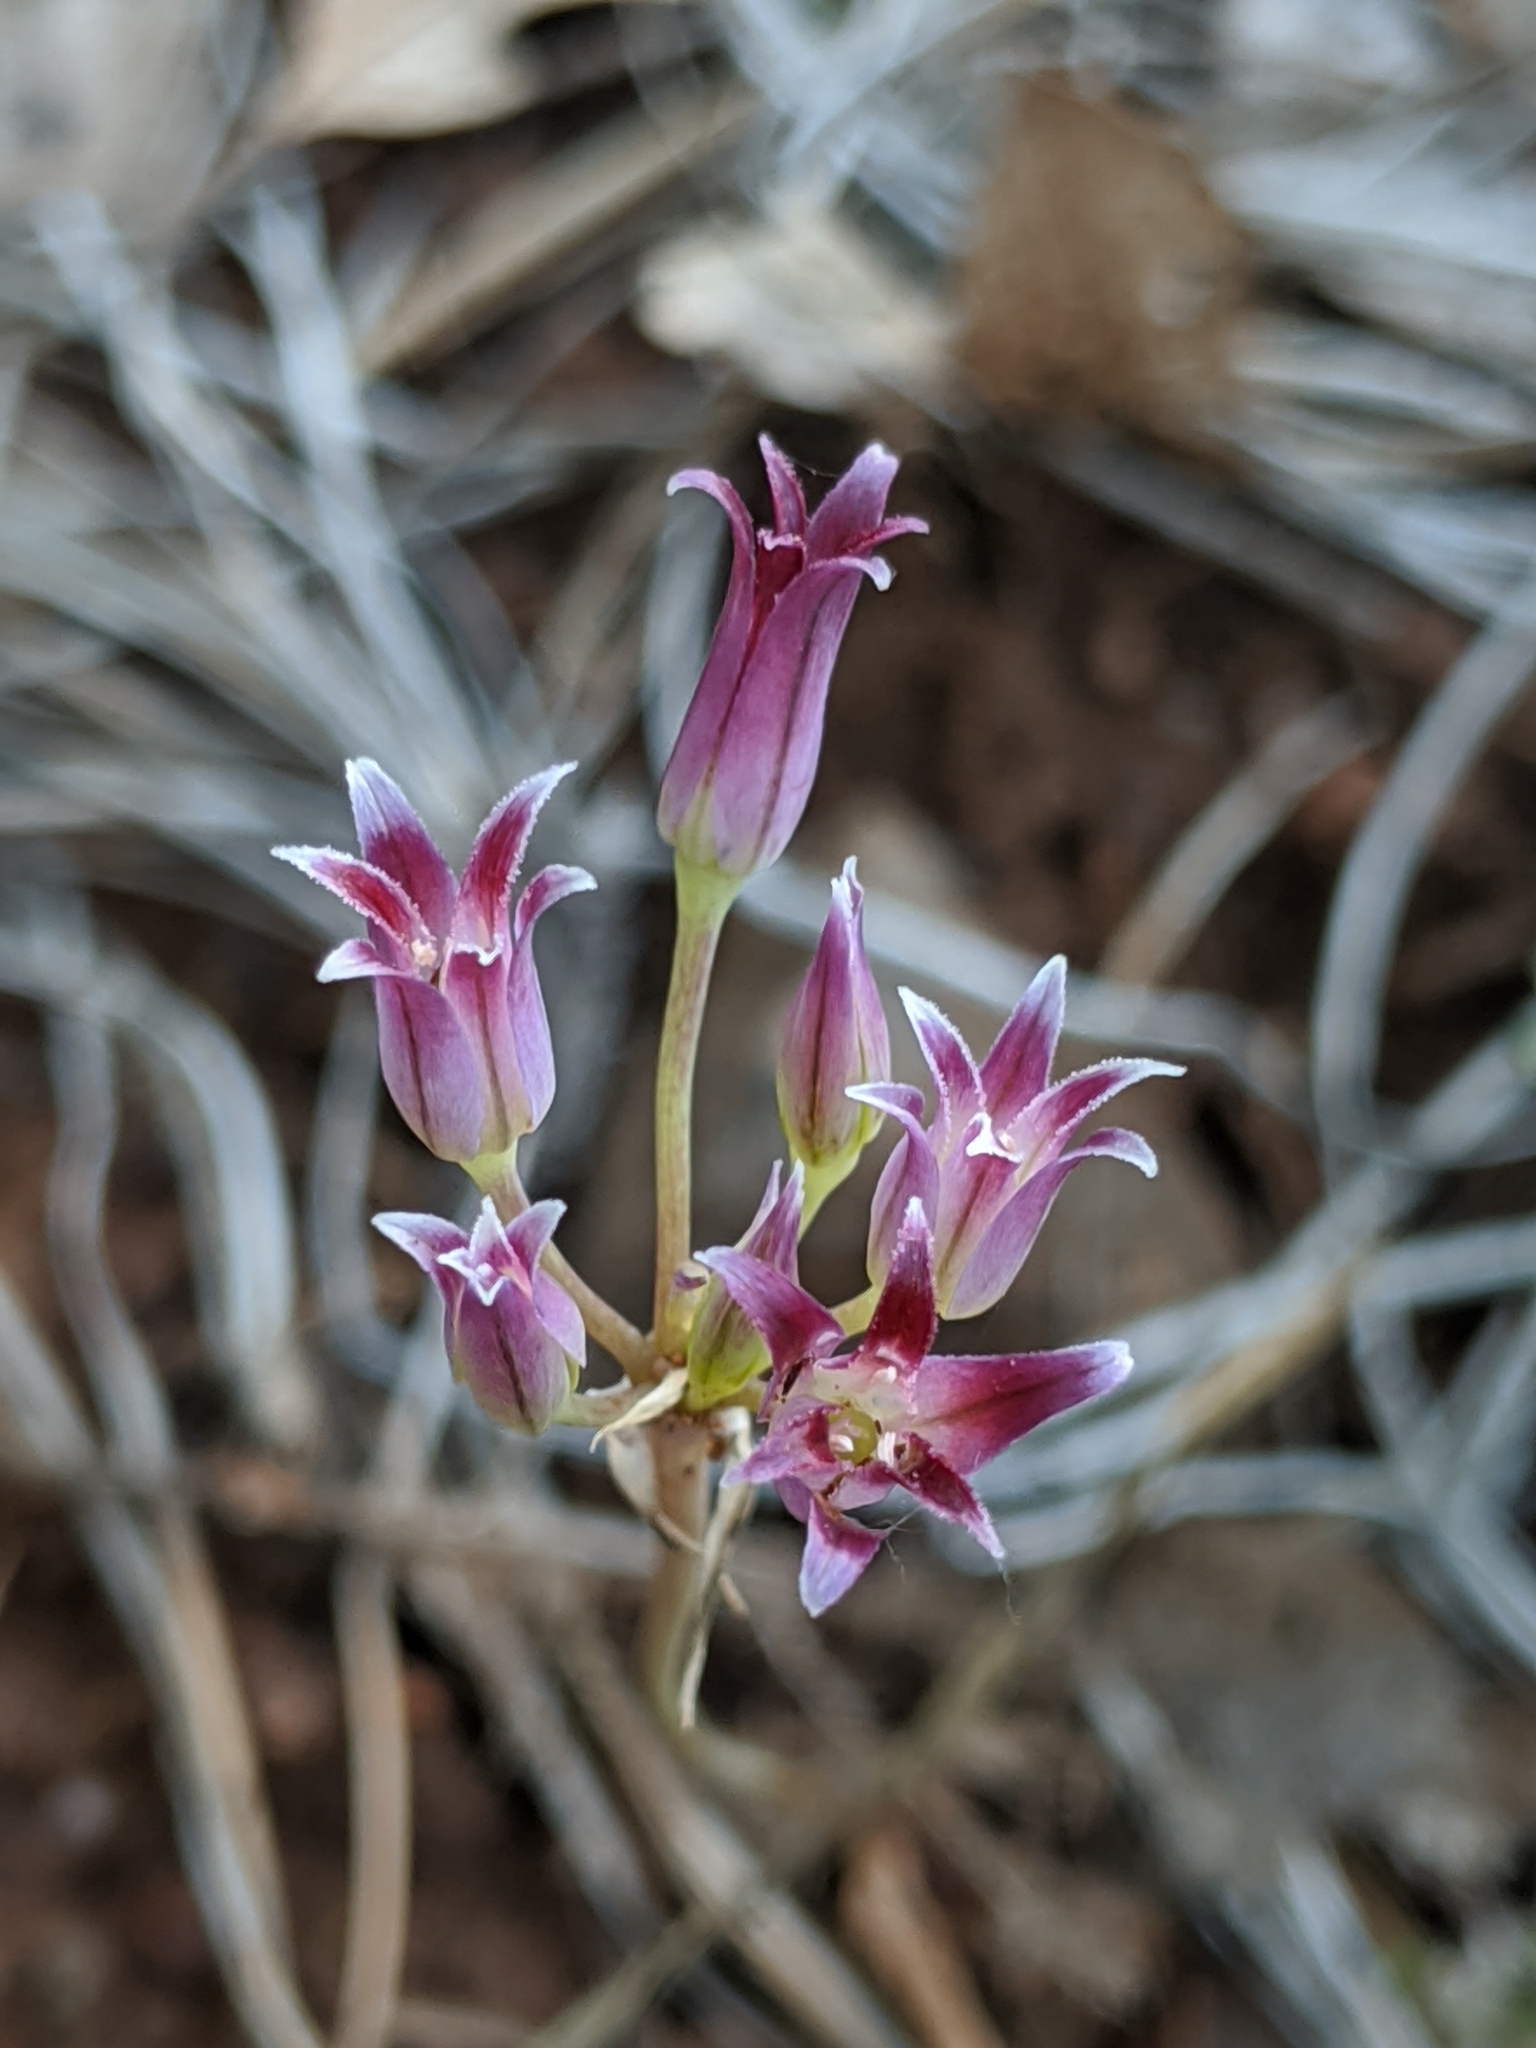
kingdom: Plantae
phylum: Tracheophyta
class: Liliopsida
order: Asparagales
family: Amaryllidaceae
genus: Allium
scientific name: Allium bolanderi
